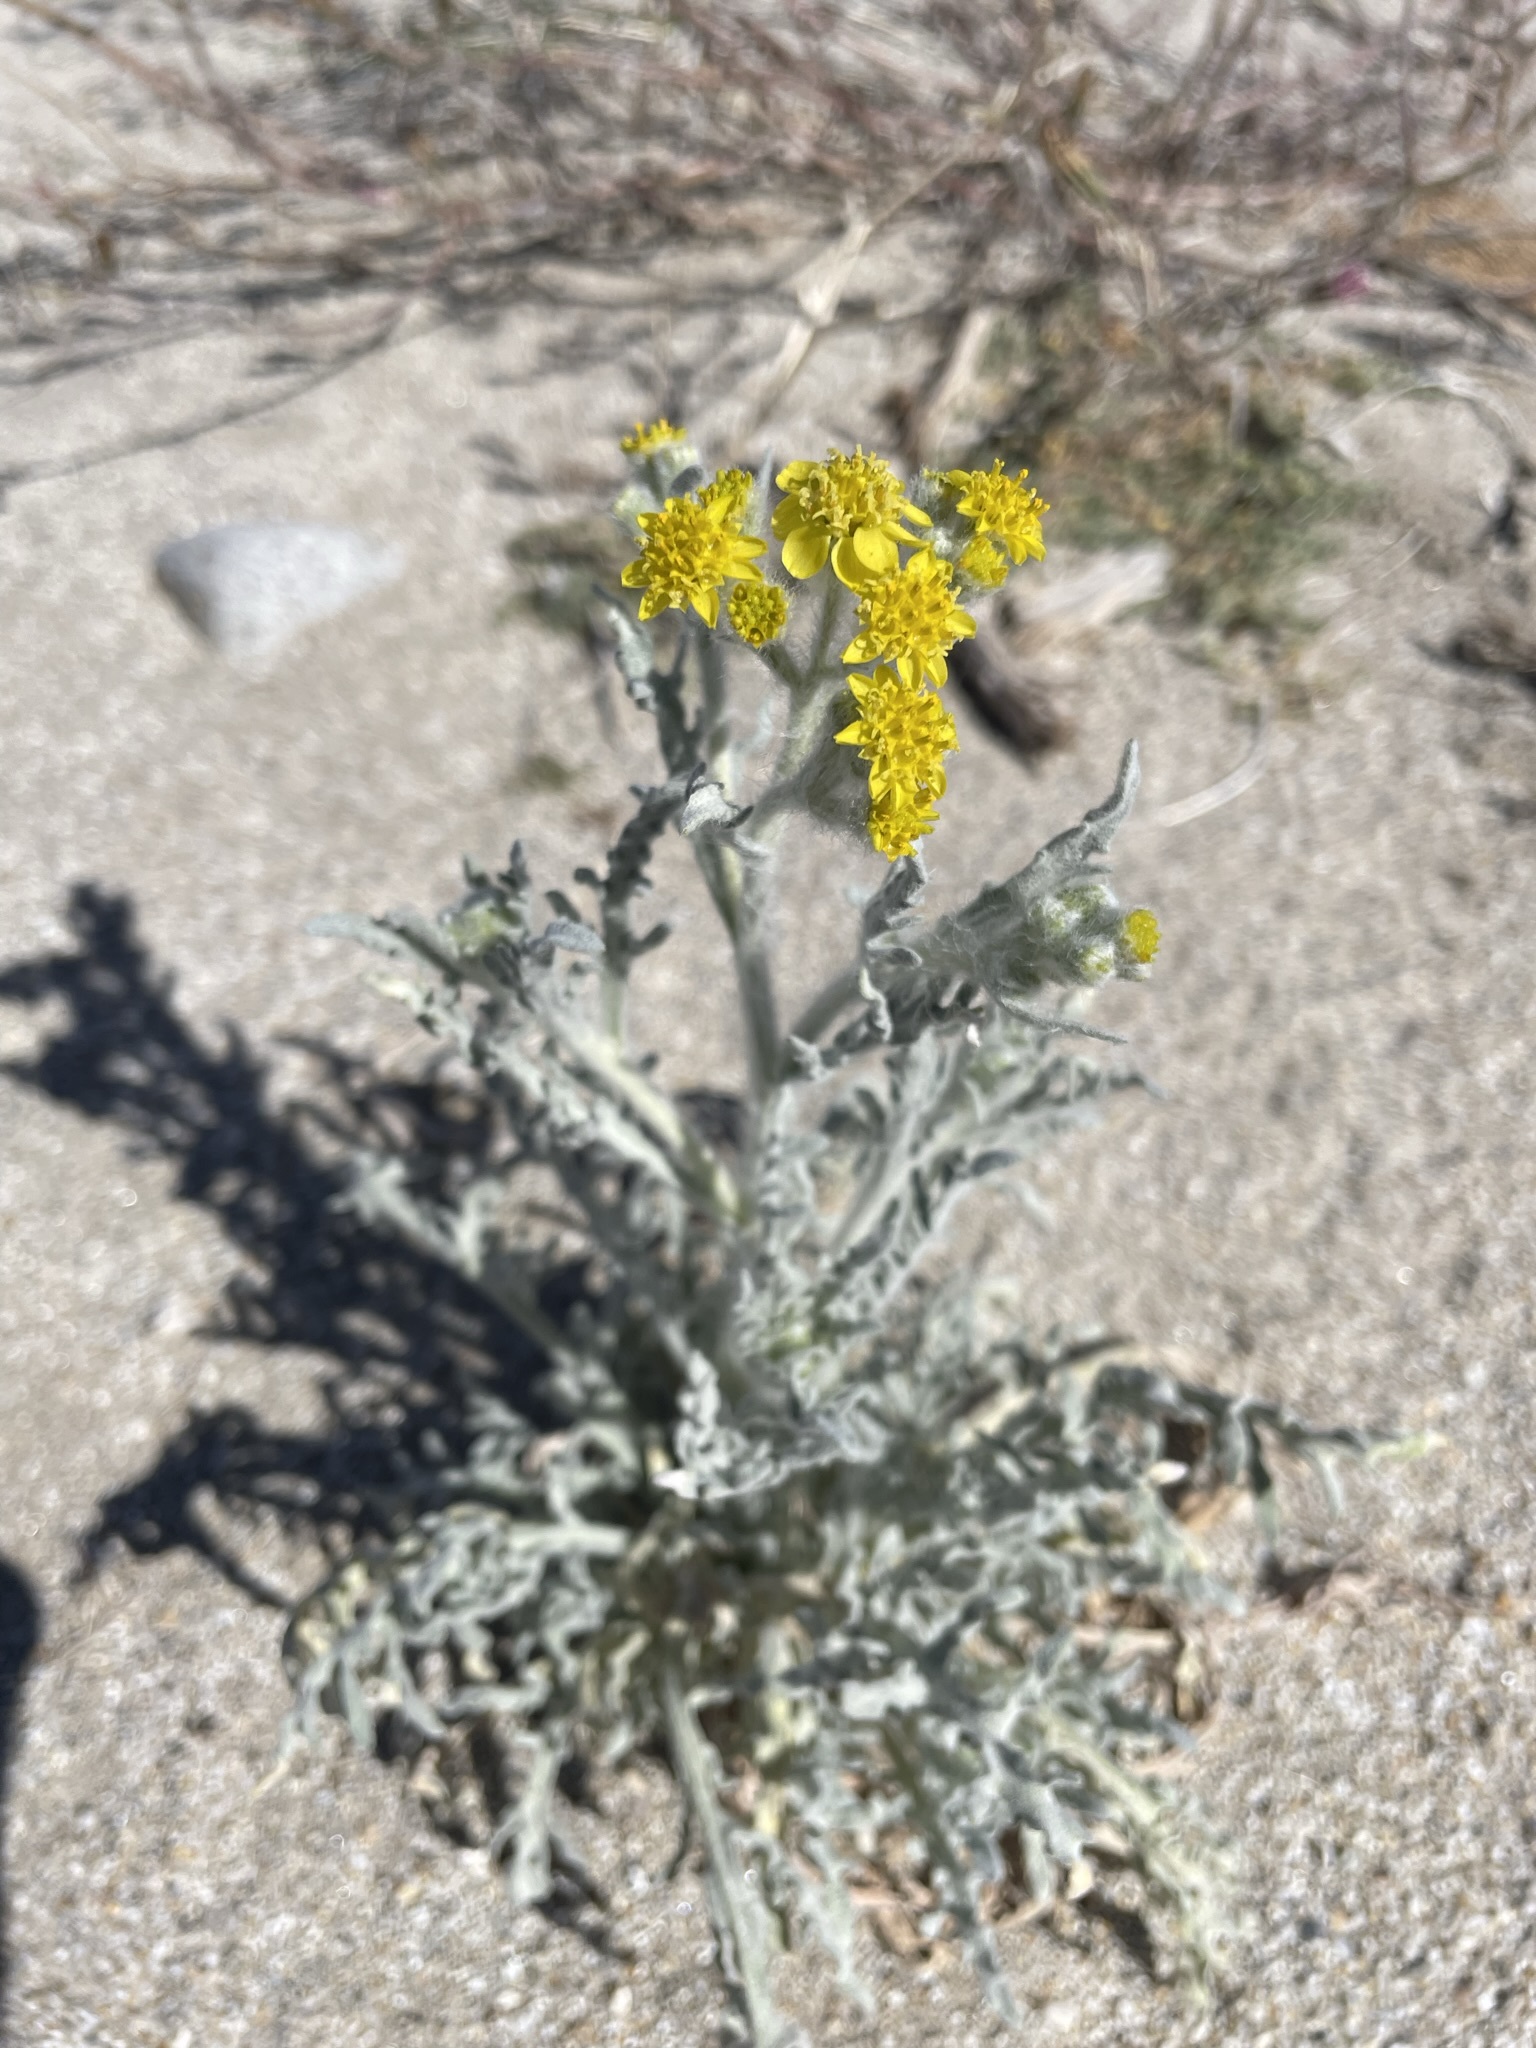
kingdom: Plantae
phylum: Tracheophyta
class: Magnoliopsida
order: Asterales
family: Asteraceae
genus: Baileya
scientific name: Baileya pauciradiata
